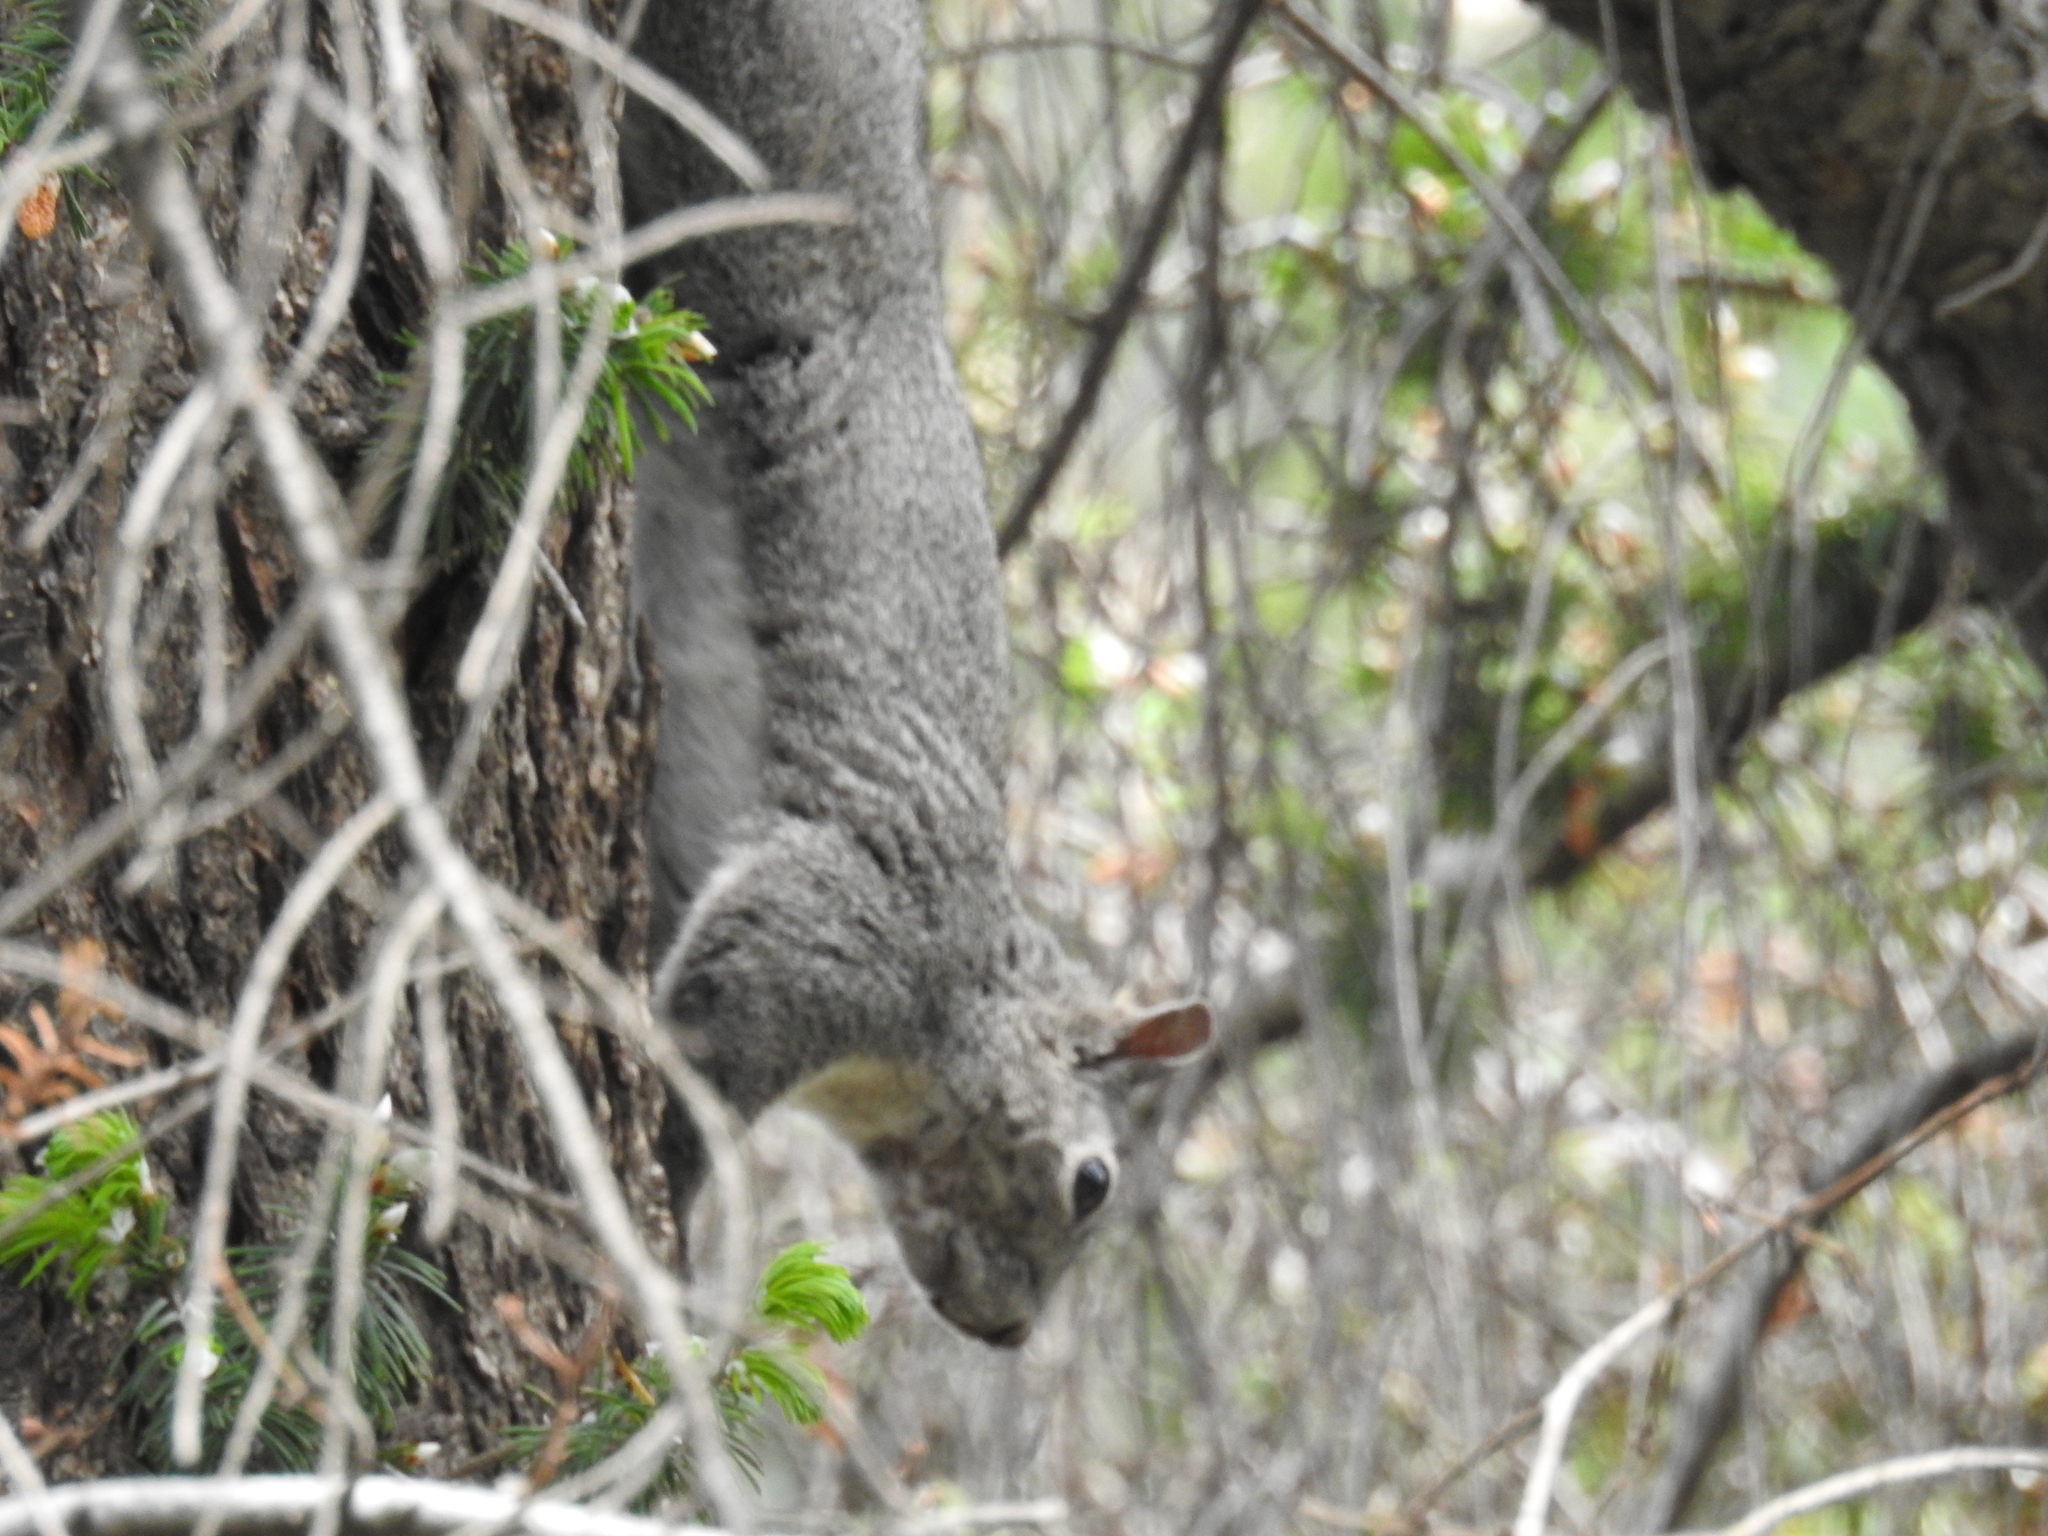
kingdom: Animalia
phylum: Chordata
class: Mammalia
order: Rodentia
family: Sciuridae
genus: Sciurus
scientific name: Sciurus griseus
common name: Western gray squirrel
